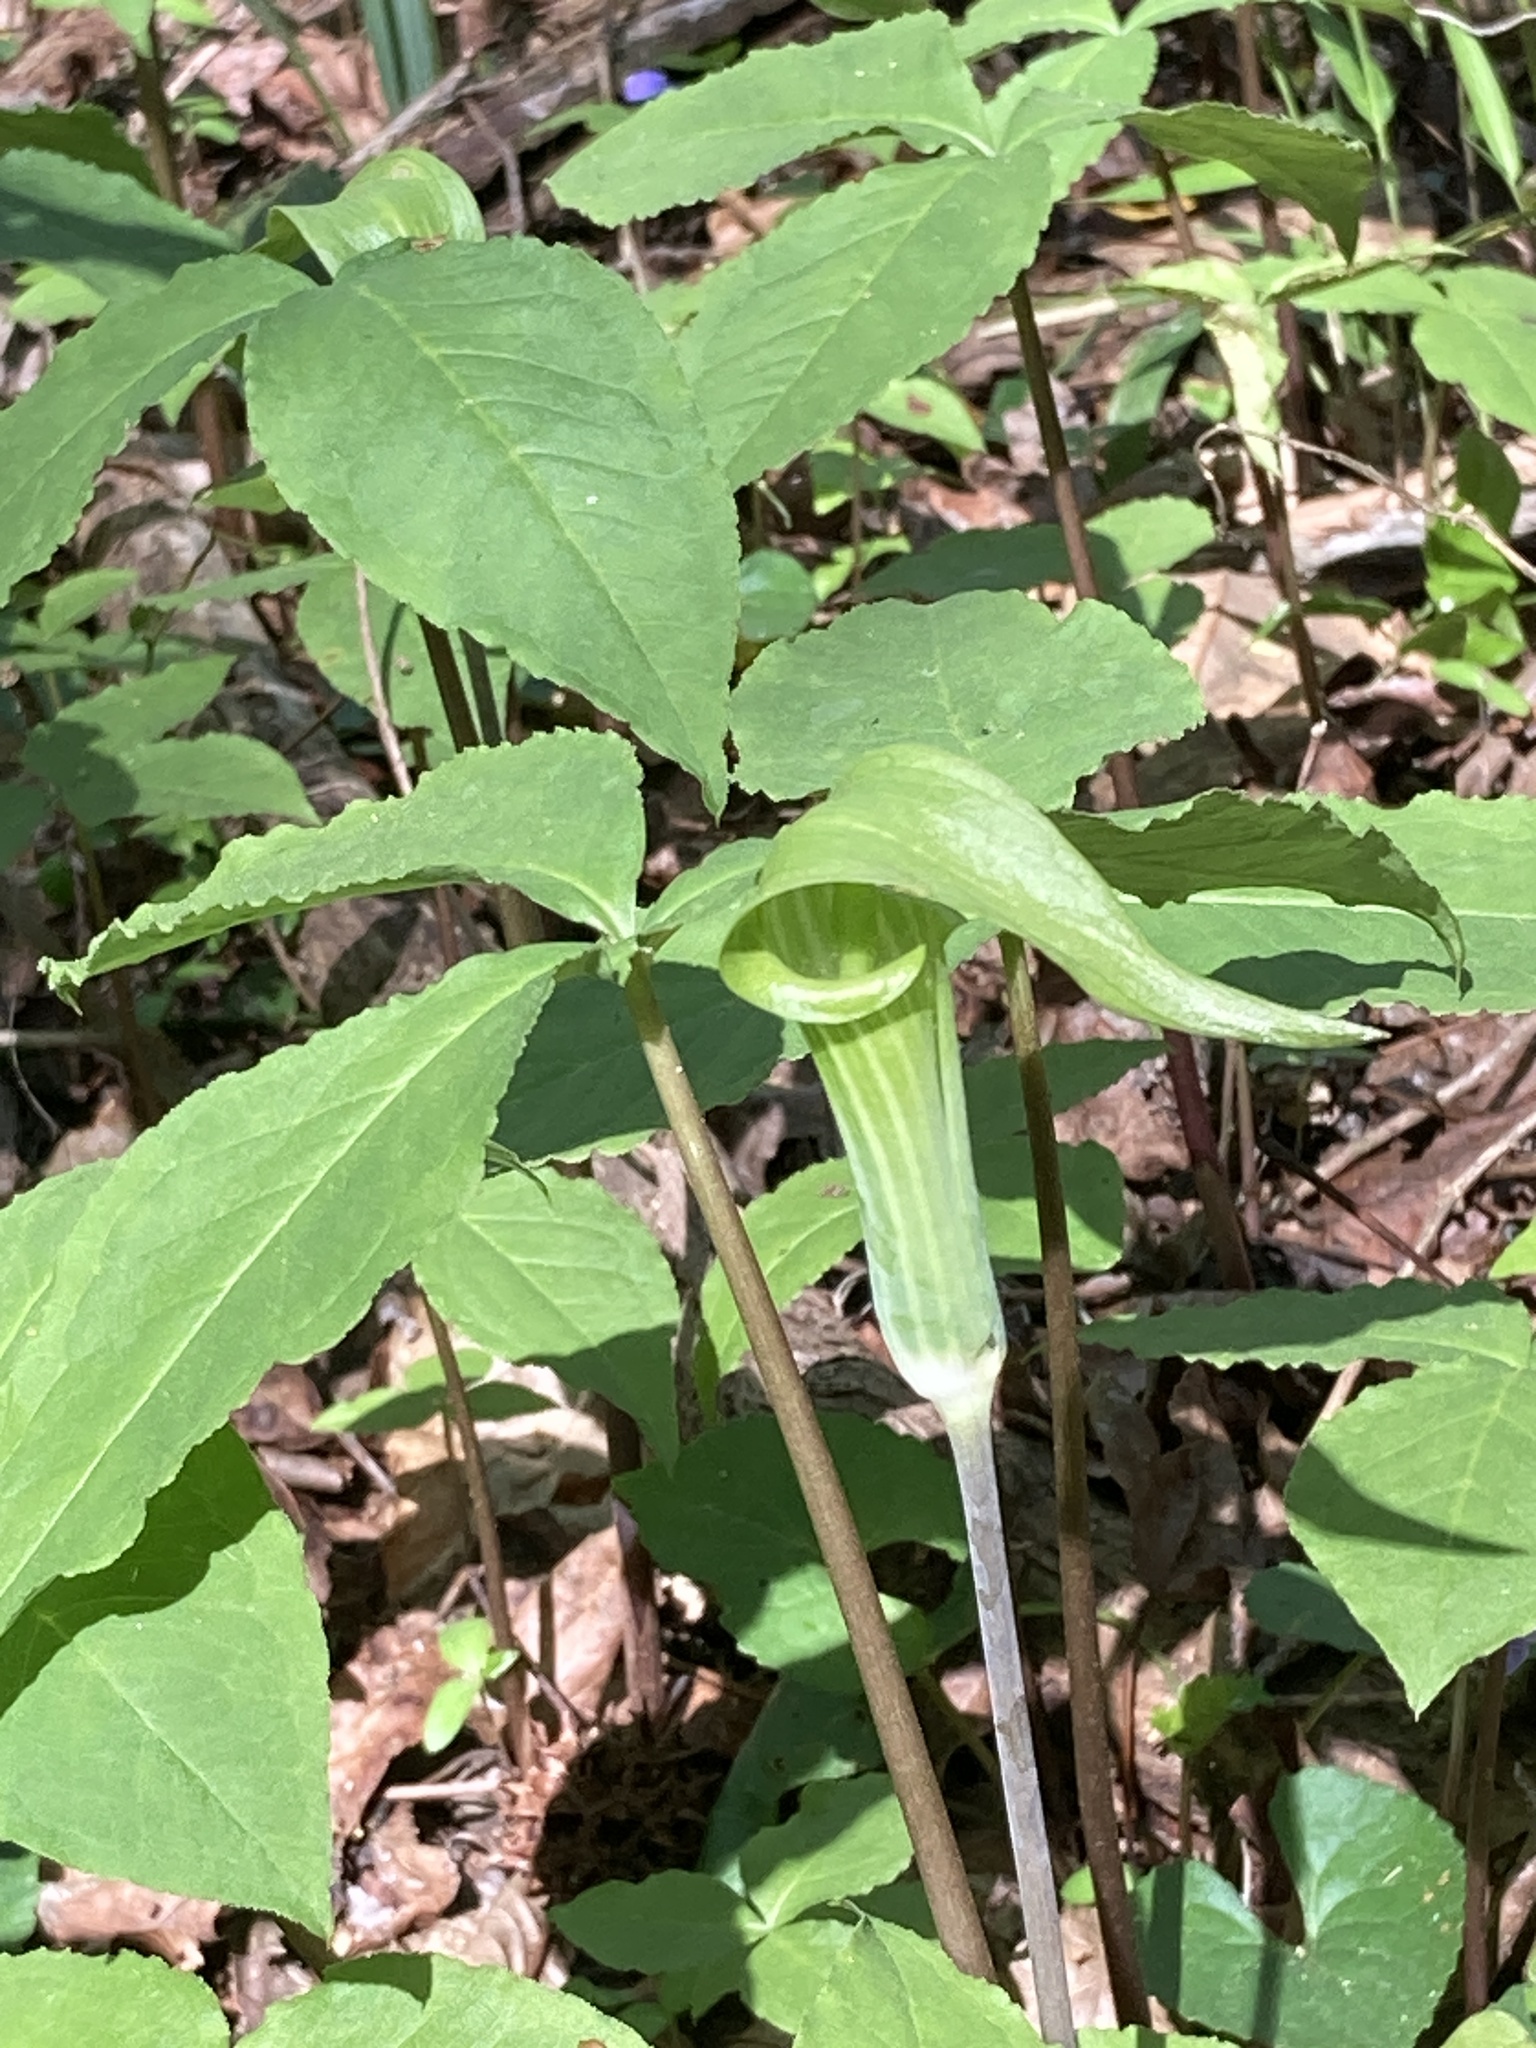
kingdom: Plantae
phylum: Tracheophyta
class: Liliopsida
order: Alismatales
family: Araceae
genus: Arisaema
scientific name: Arisaema acuminatum
